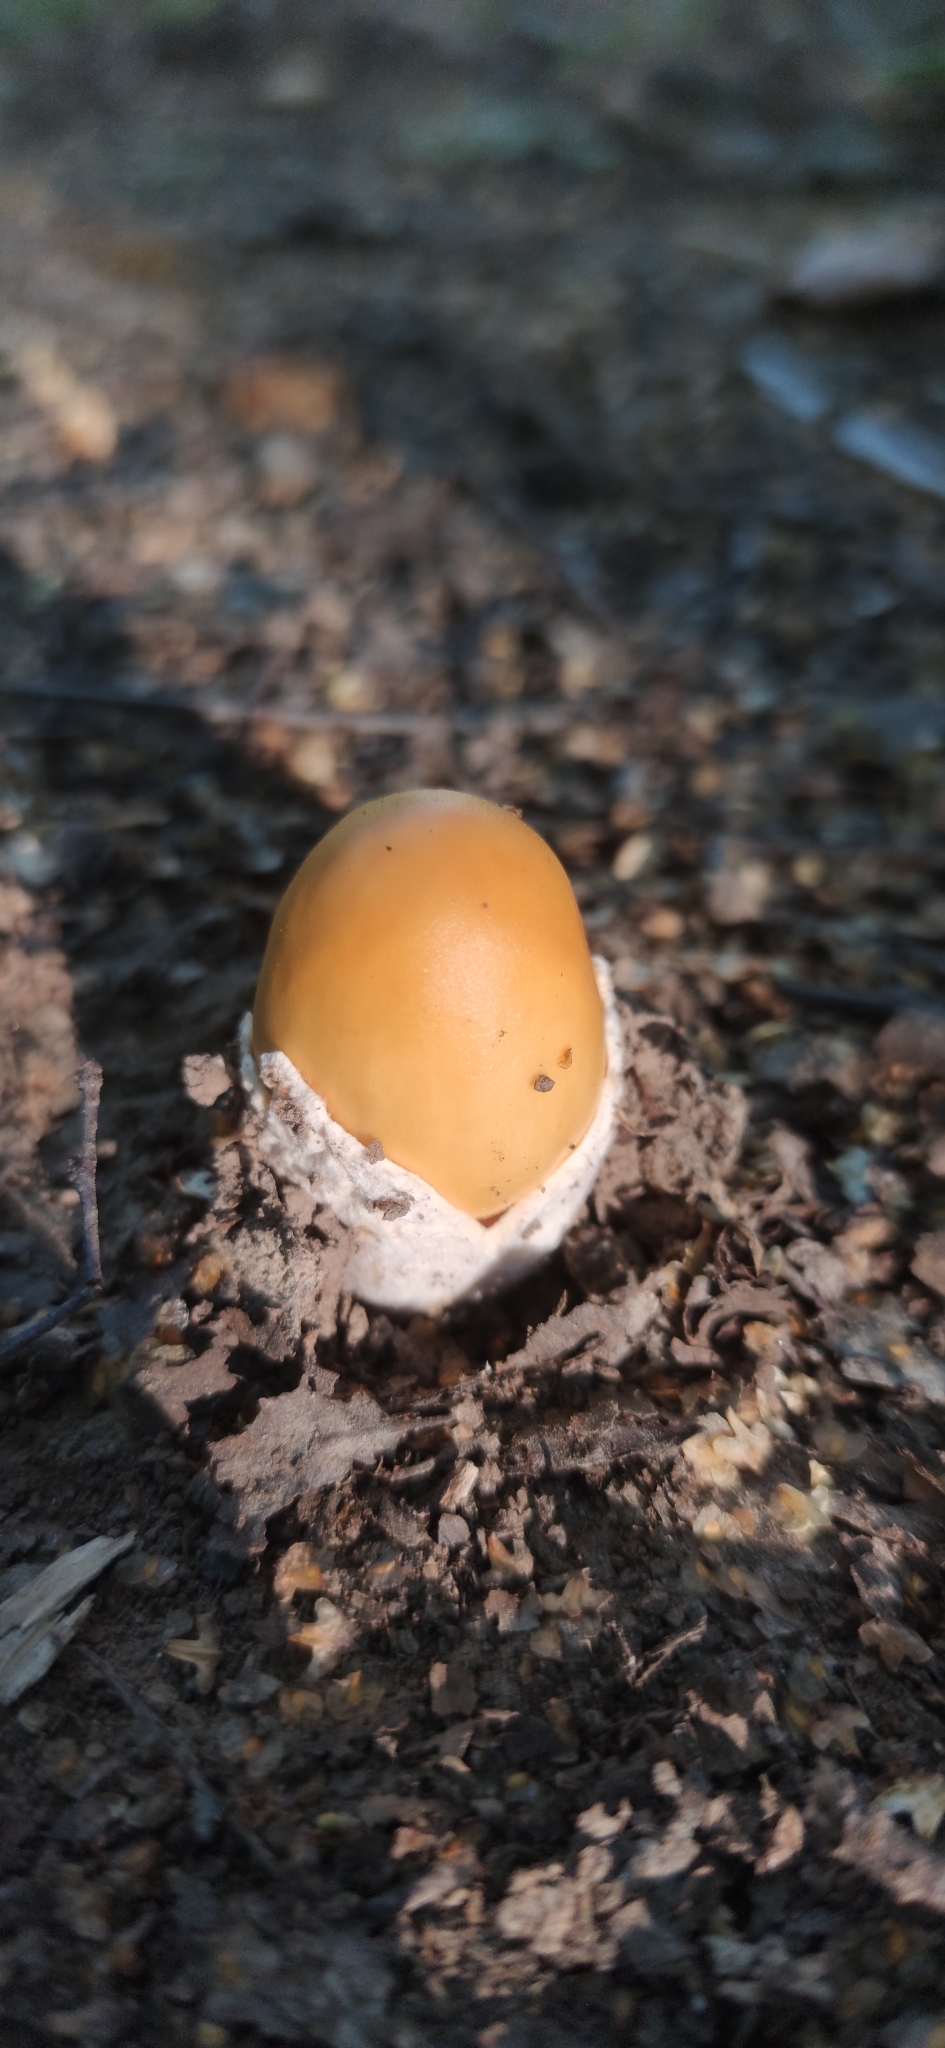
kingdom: Fungi
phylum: Basidiomycota
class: Agaricomycetes
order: Agaricales
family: Amanitaceae
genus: Amanita
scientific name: Amanita crocea
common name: Orange grisette
